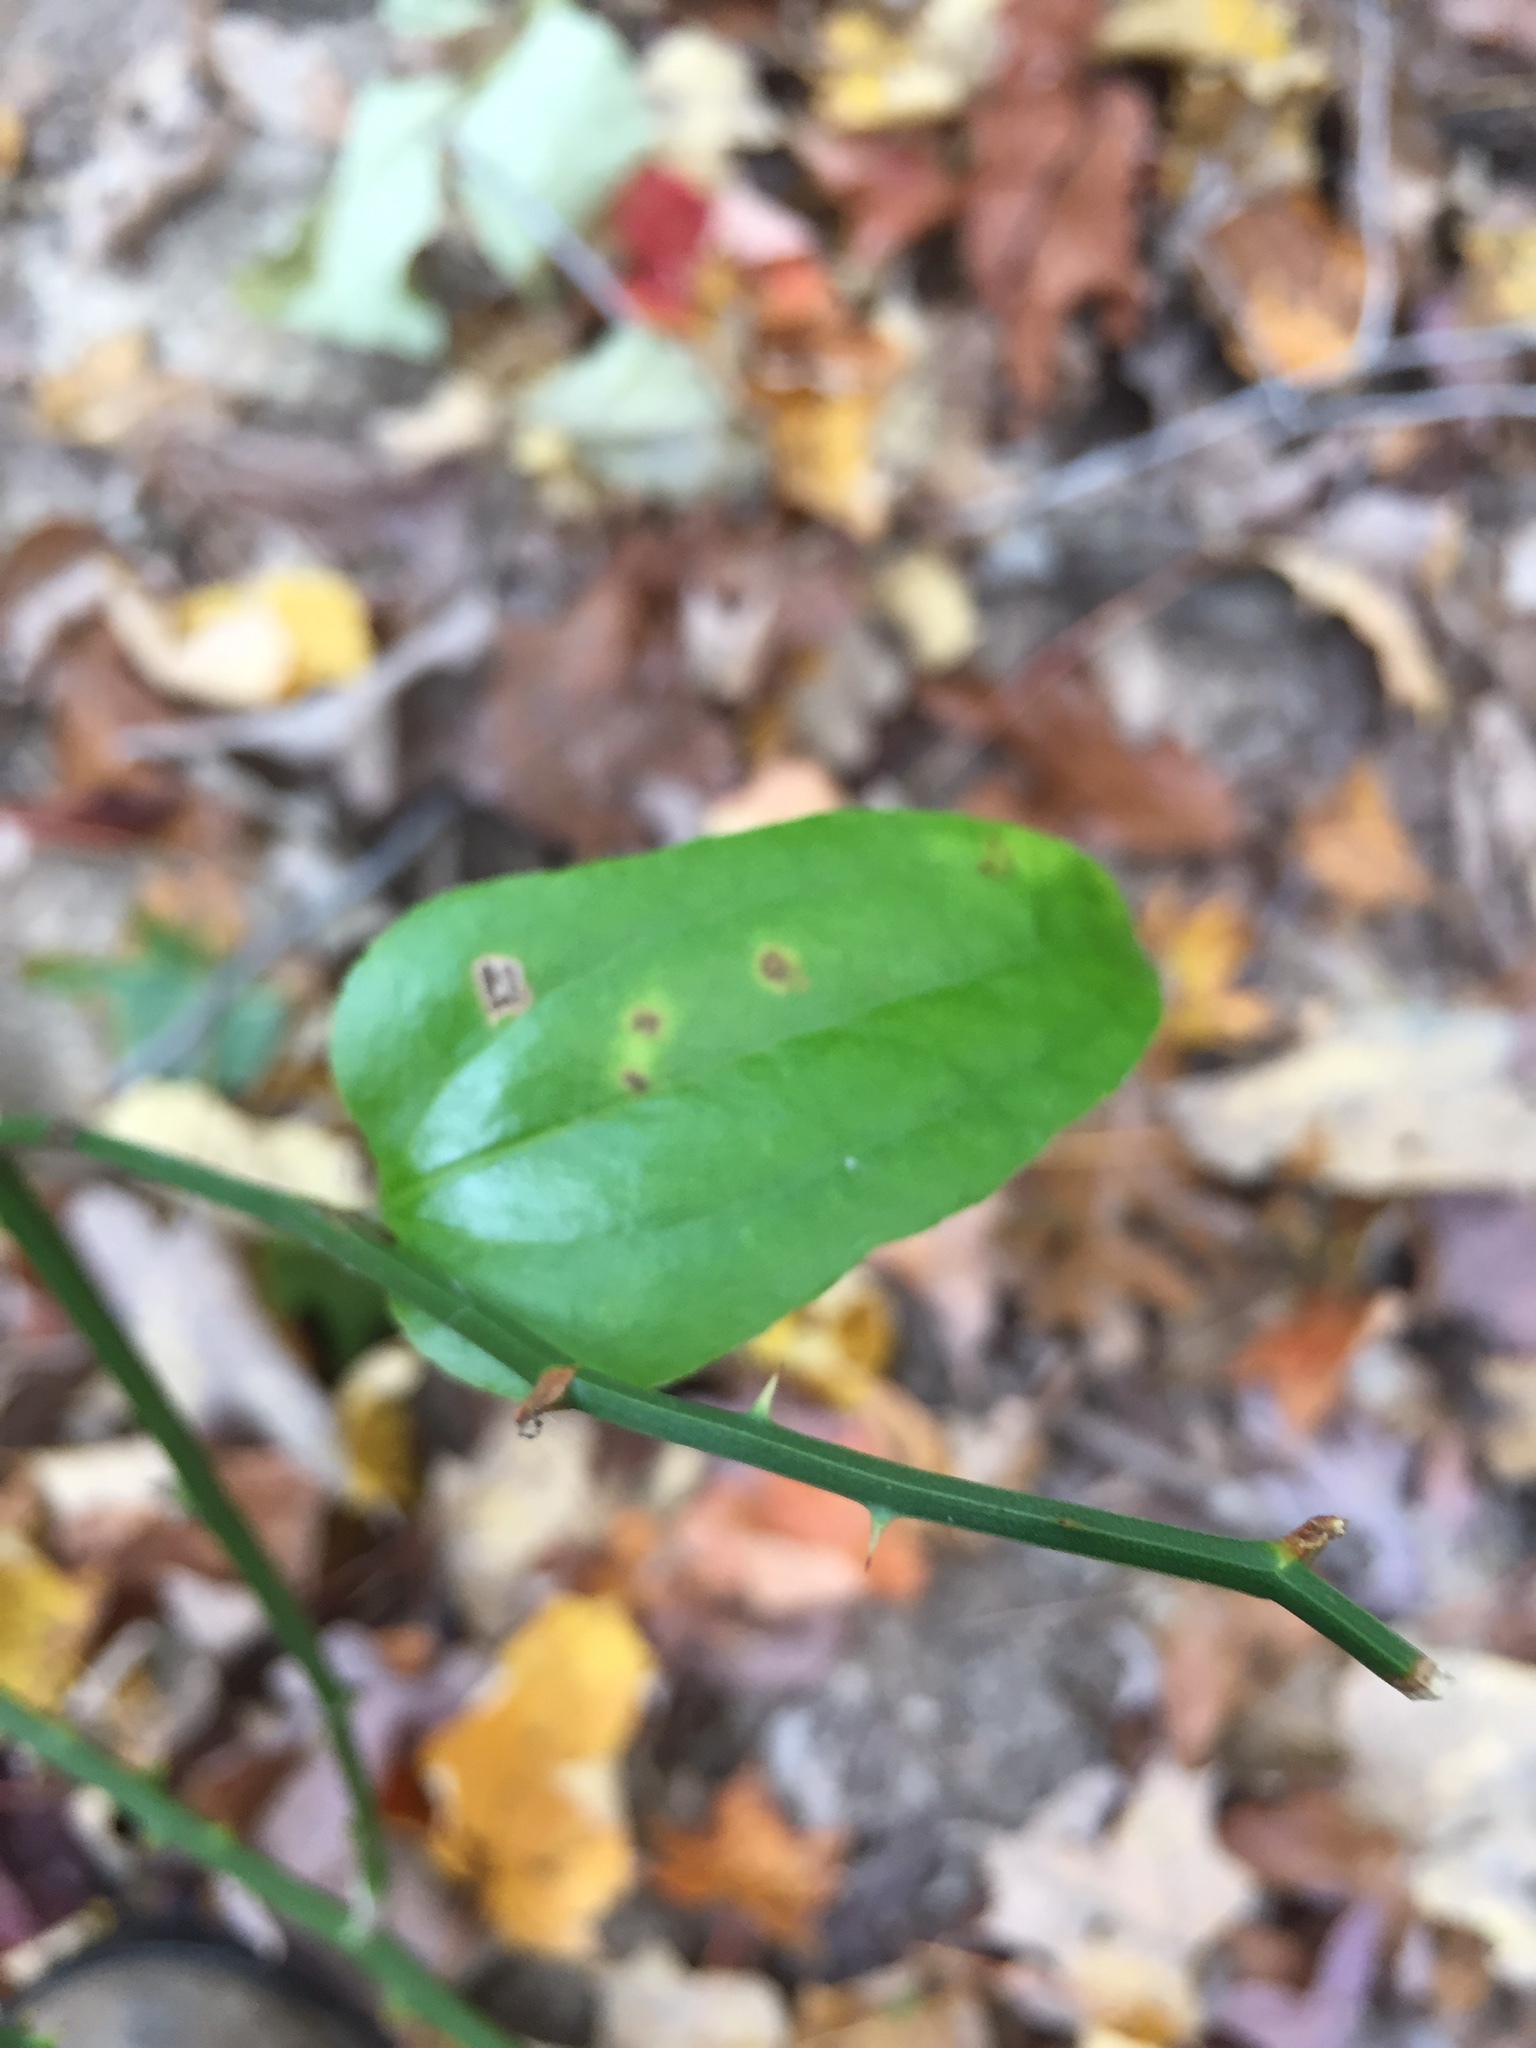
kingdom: Plantae
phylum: Tracheophyta
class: Liliopsida
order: Liliales
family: Smilacaceae
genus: Smilax
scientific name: Smilax rotundifolia
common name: Bullbriar
